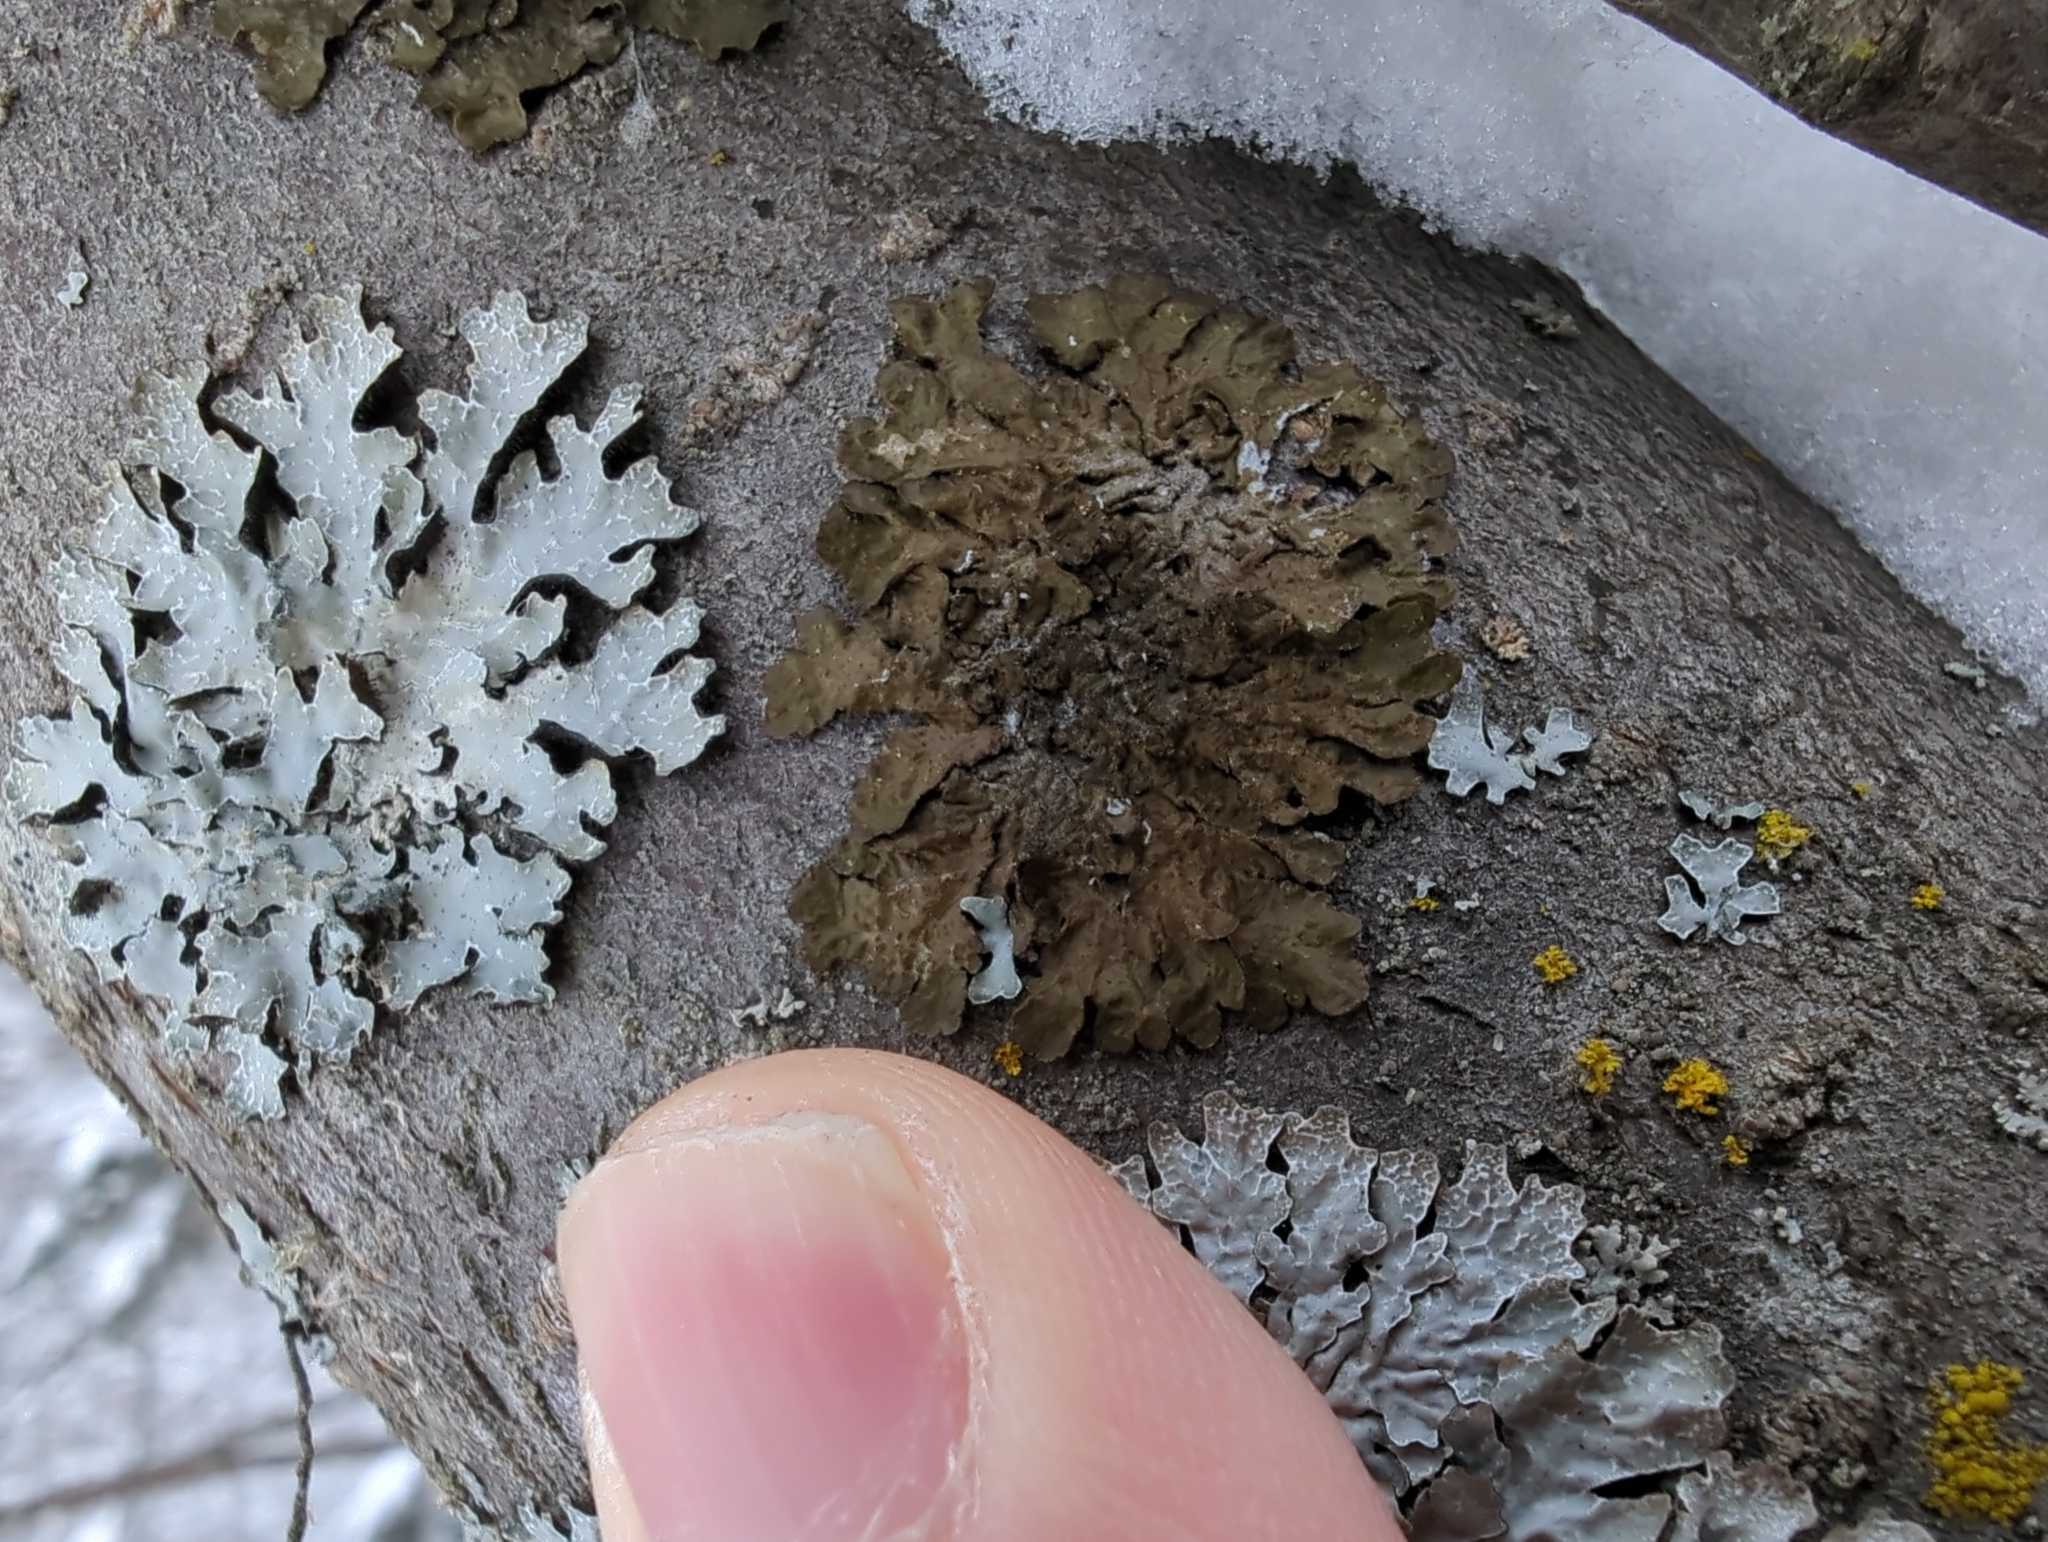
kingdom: Fungi
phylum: Ascomycota
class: Lecanoromycetes
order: Lecanorales
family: Parmeliaceae
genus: Melanohalea
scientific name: Melanohalea exasperatula
